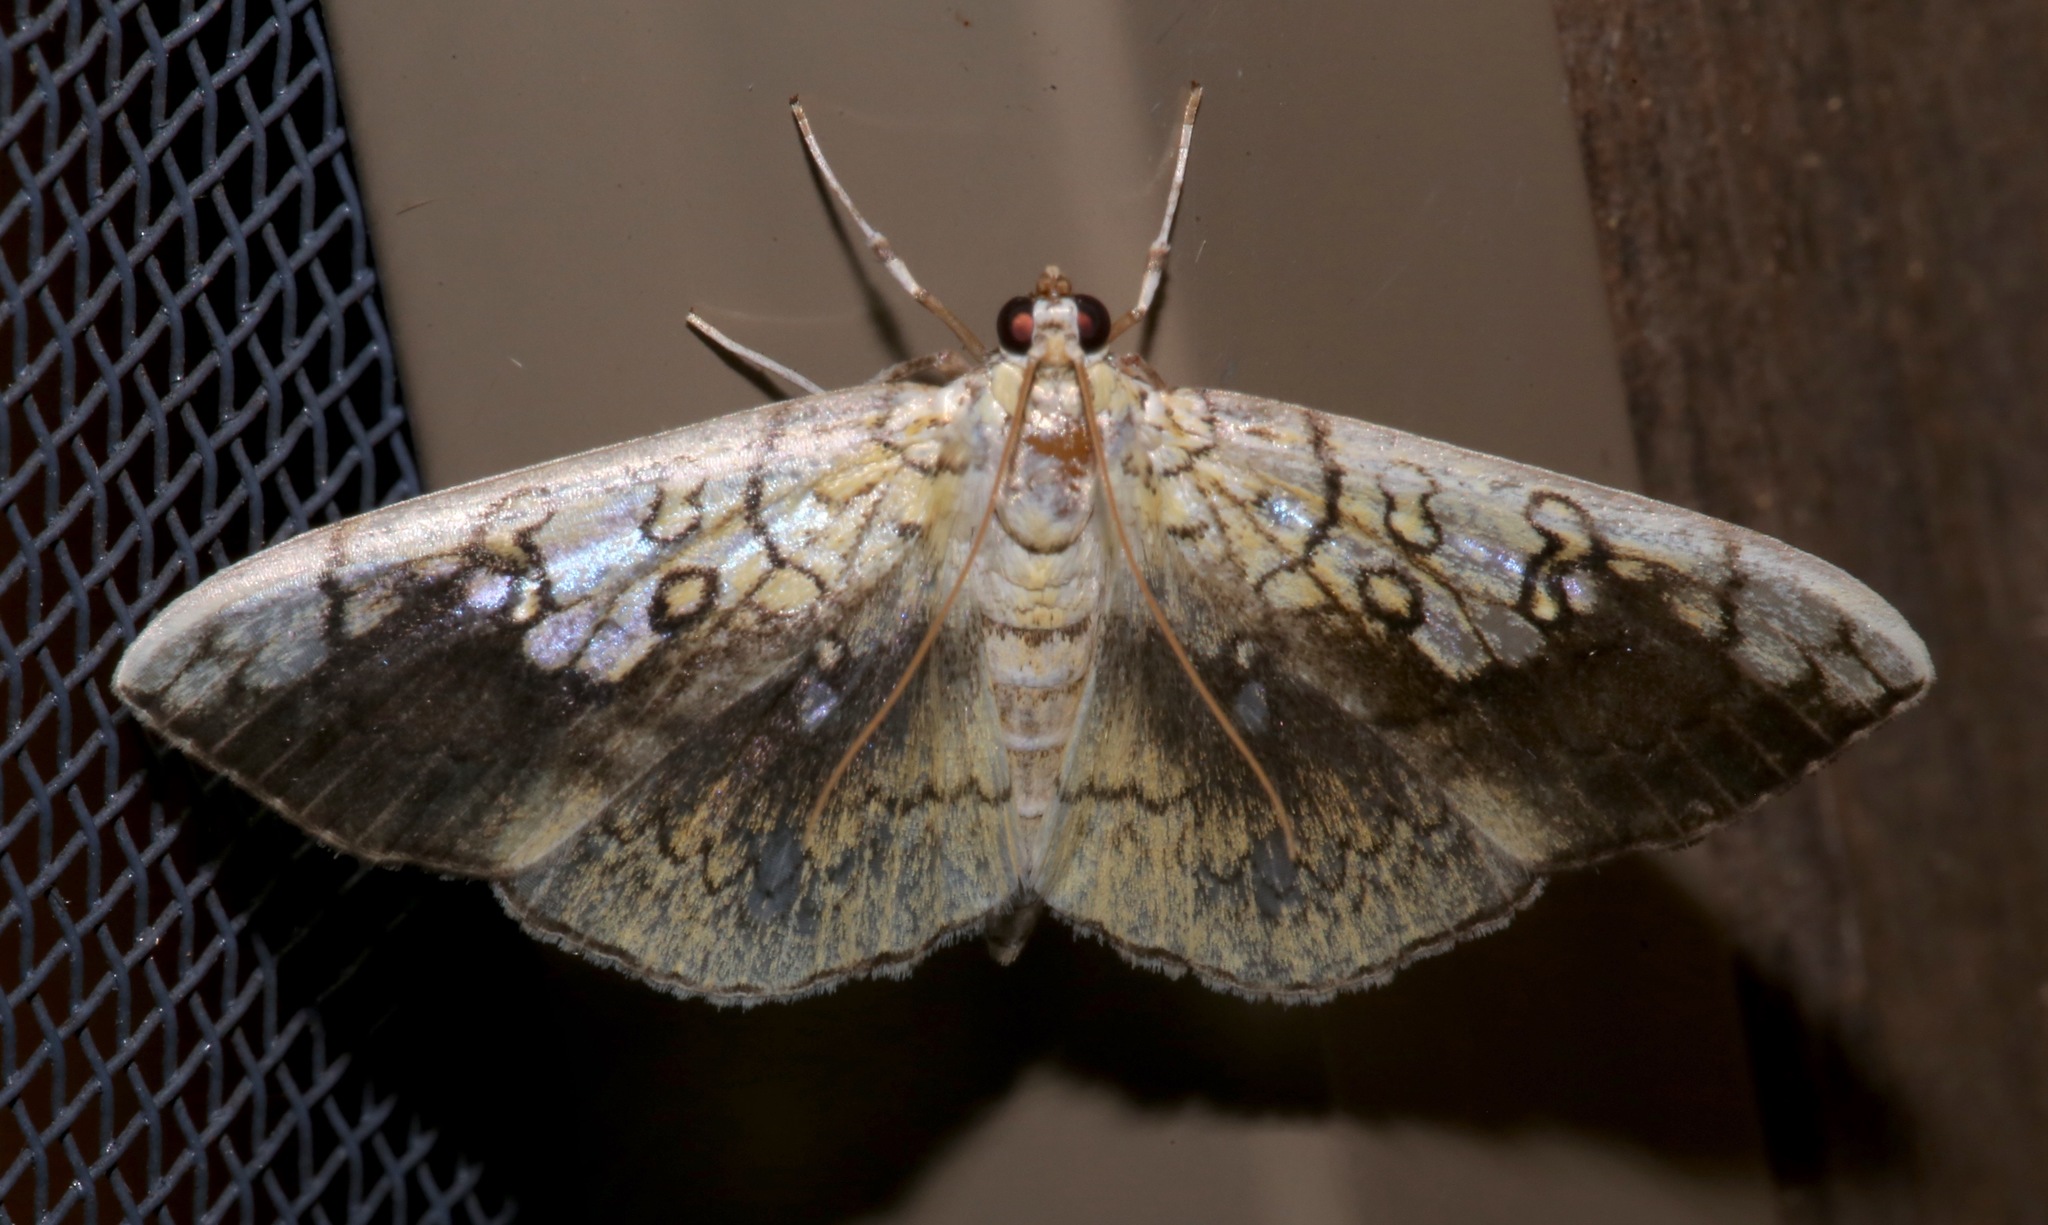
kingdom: Animalia
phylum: Arthropoda
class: Insecta
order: Lepidoptera
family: Crambidae
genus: Pantographa
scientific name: Pantographa limata
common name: Basswood leafroller moth
